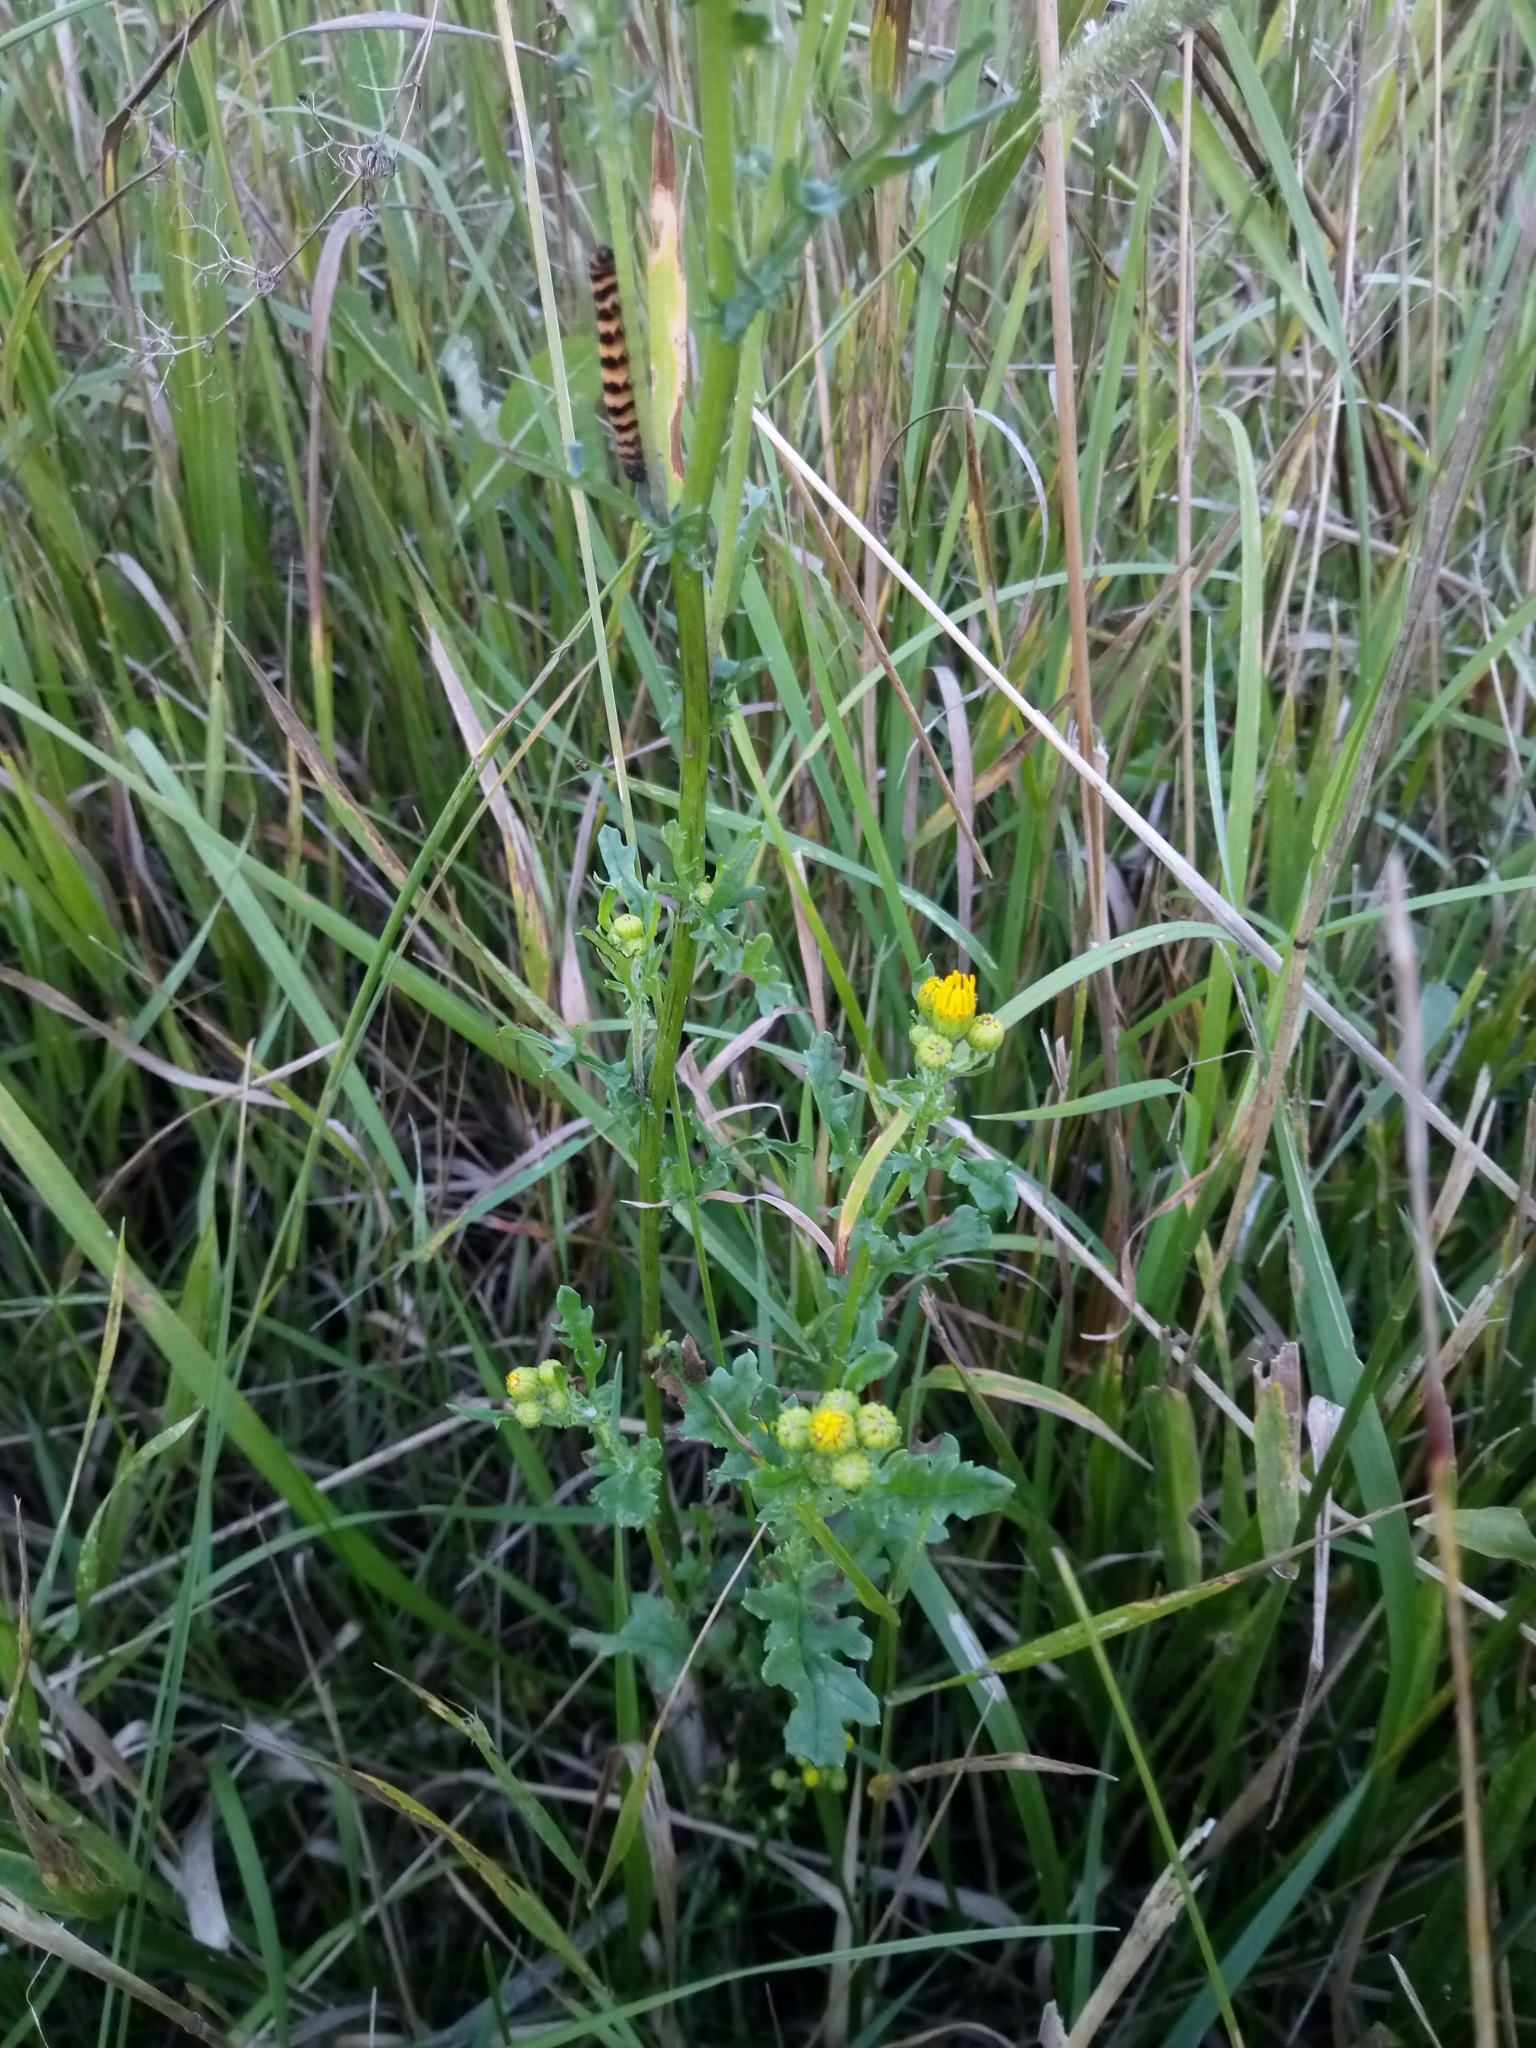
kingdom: Plantae
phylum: Tracheophyta
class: Magnoliopsida
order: Asterales
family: Asteraceae
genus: Jacobaea
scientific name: Jacobaea vulgaris
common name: Stinking willie
